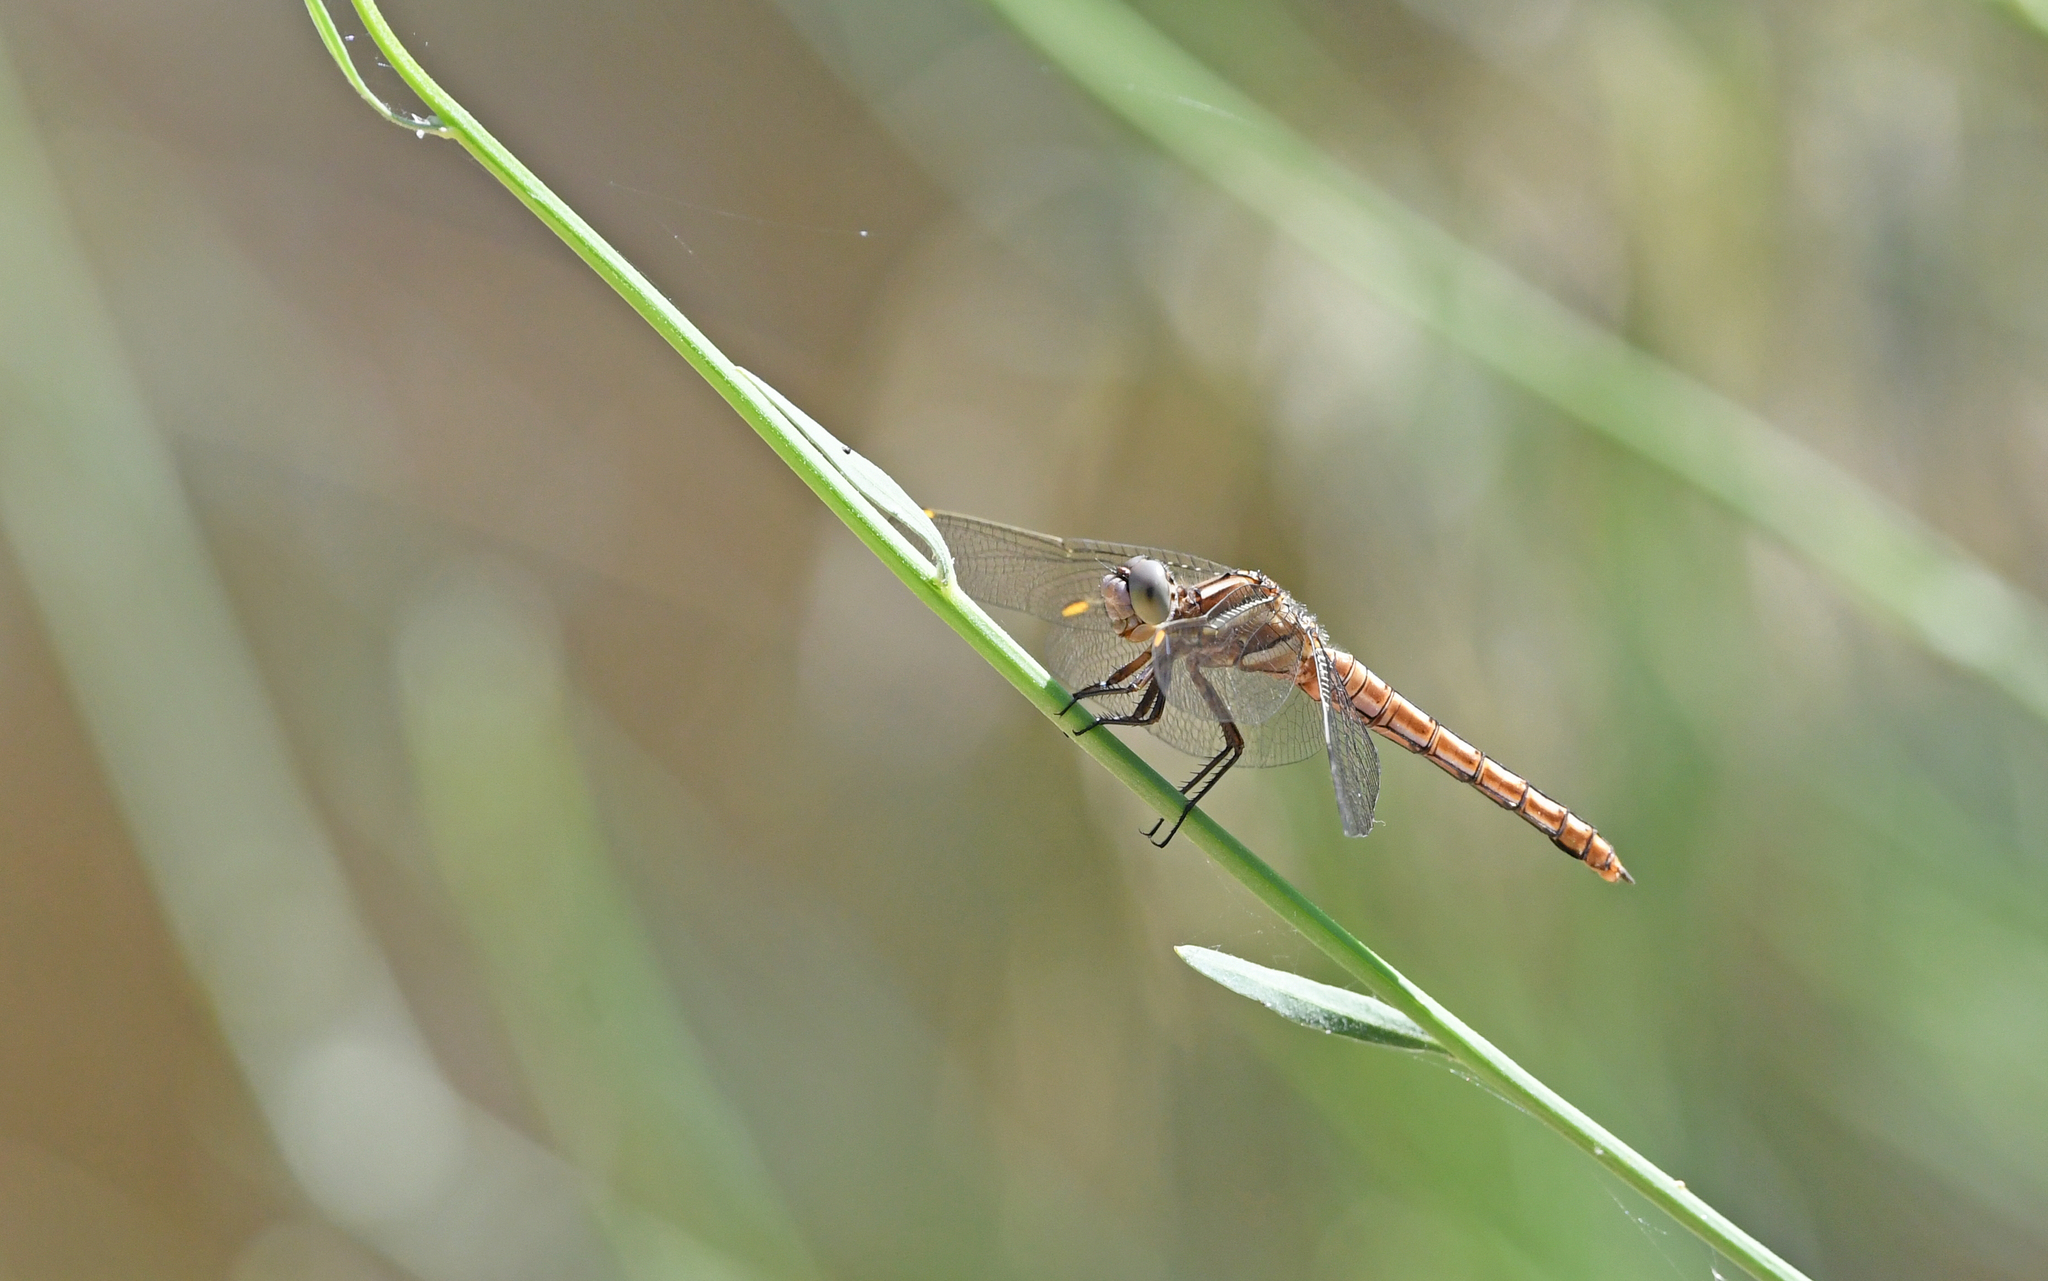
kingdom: Animalia
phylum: Arthropoda
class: Insecta
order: Odonata
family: Libellulidae
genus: Orthetrum
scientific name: Orthetrum brunneum
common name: Southern skimmer
